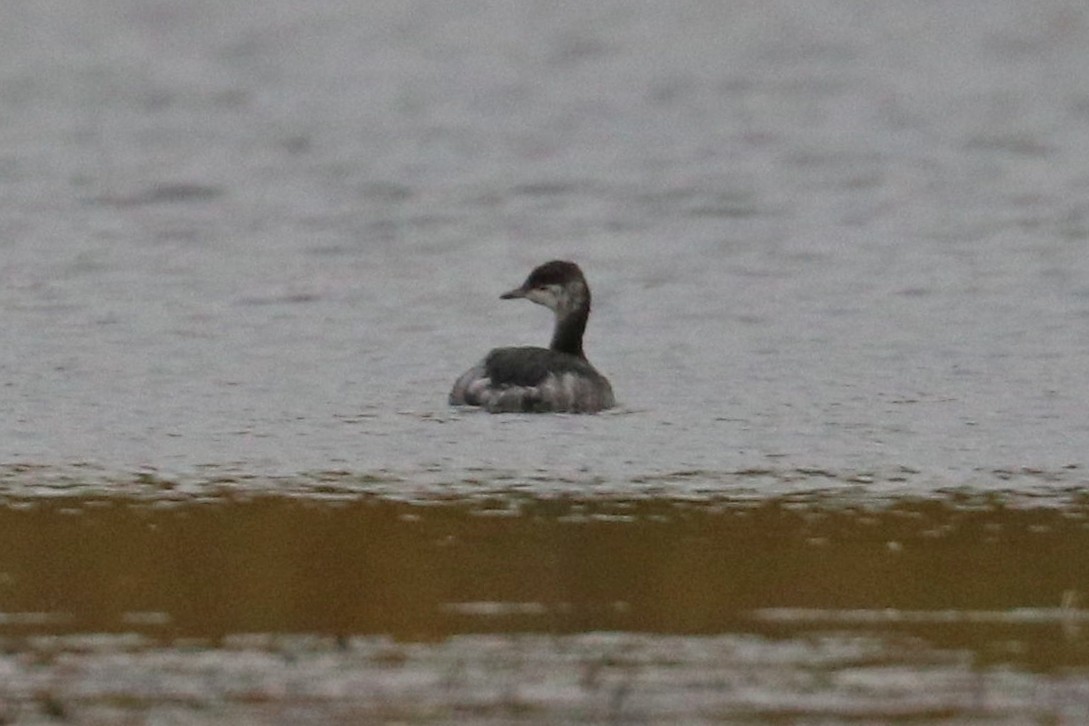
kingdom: Animalia
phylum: Chordata
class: Aves
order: Podicipediformes
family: Podicipedidae
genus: Podiceps
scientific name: Podiceps auritus
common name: Horned grebe
